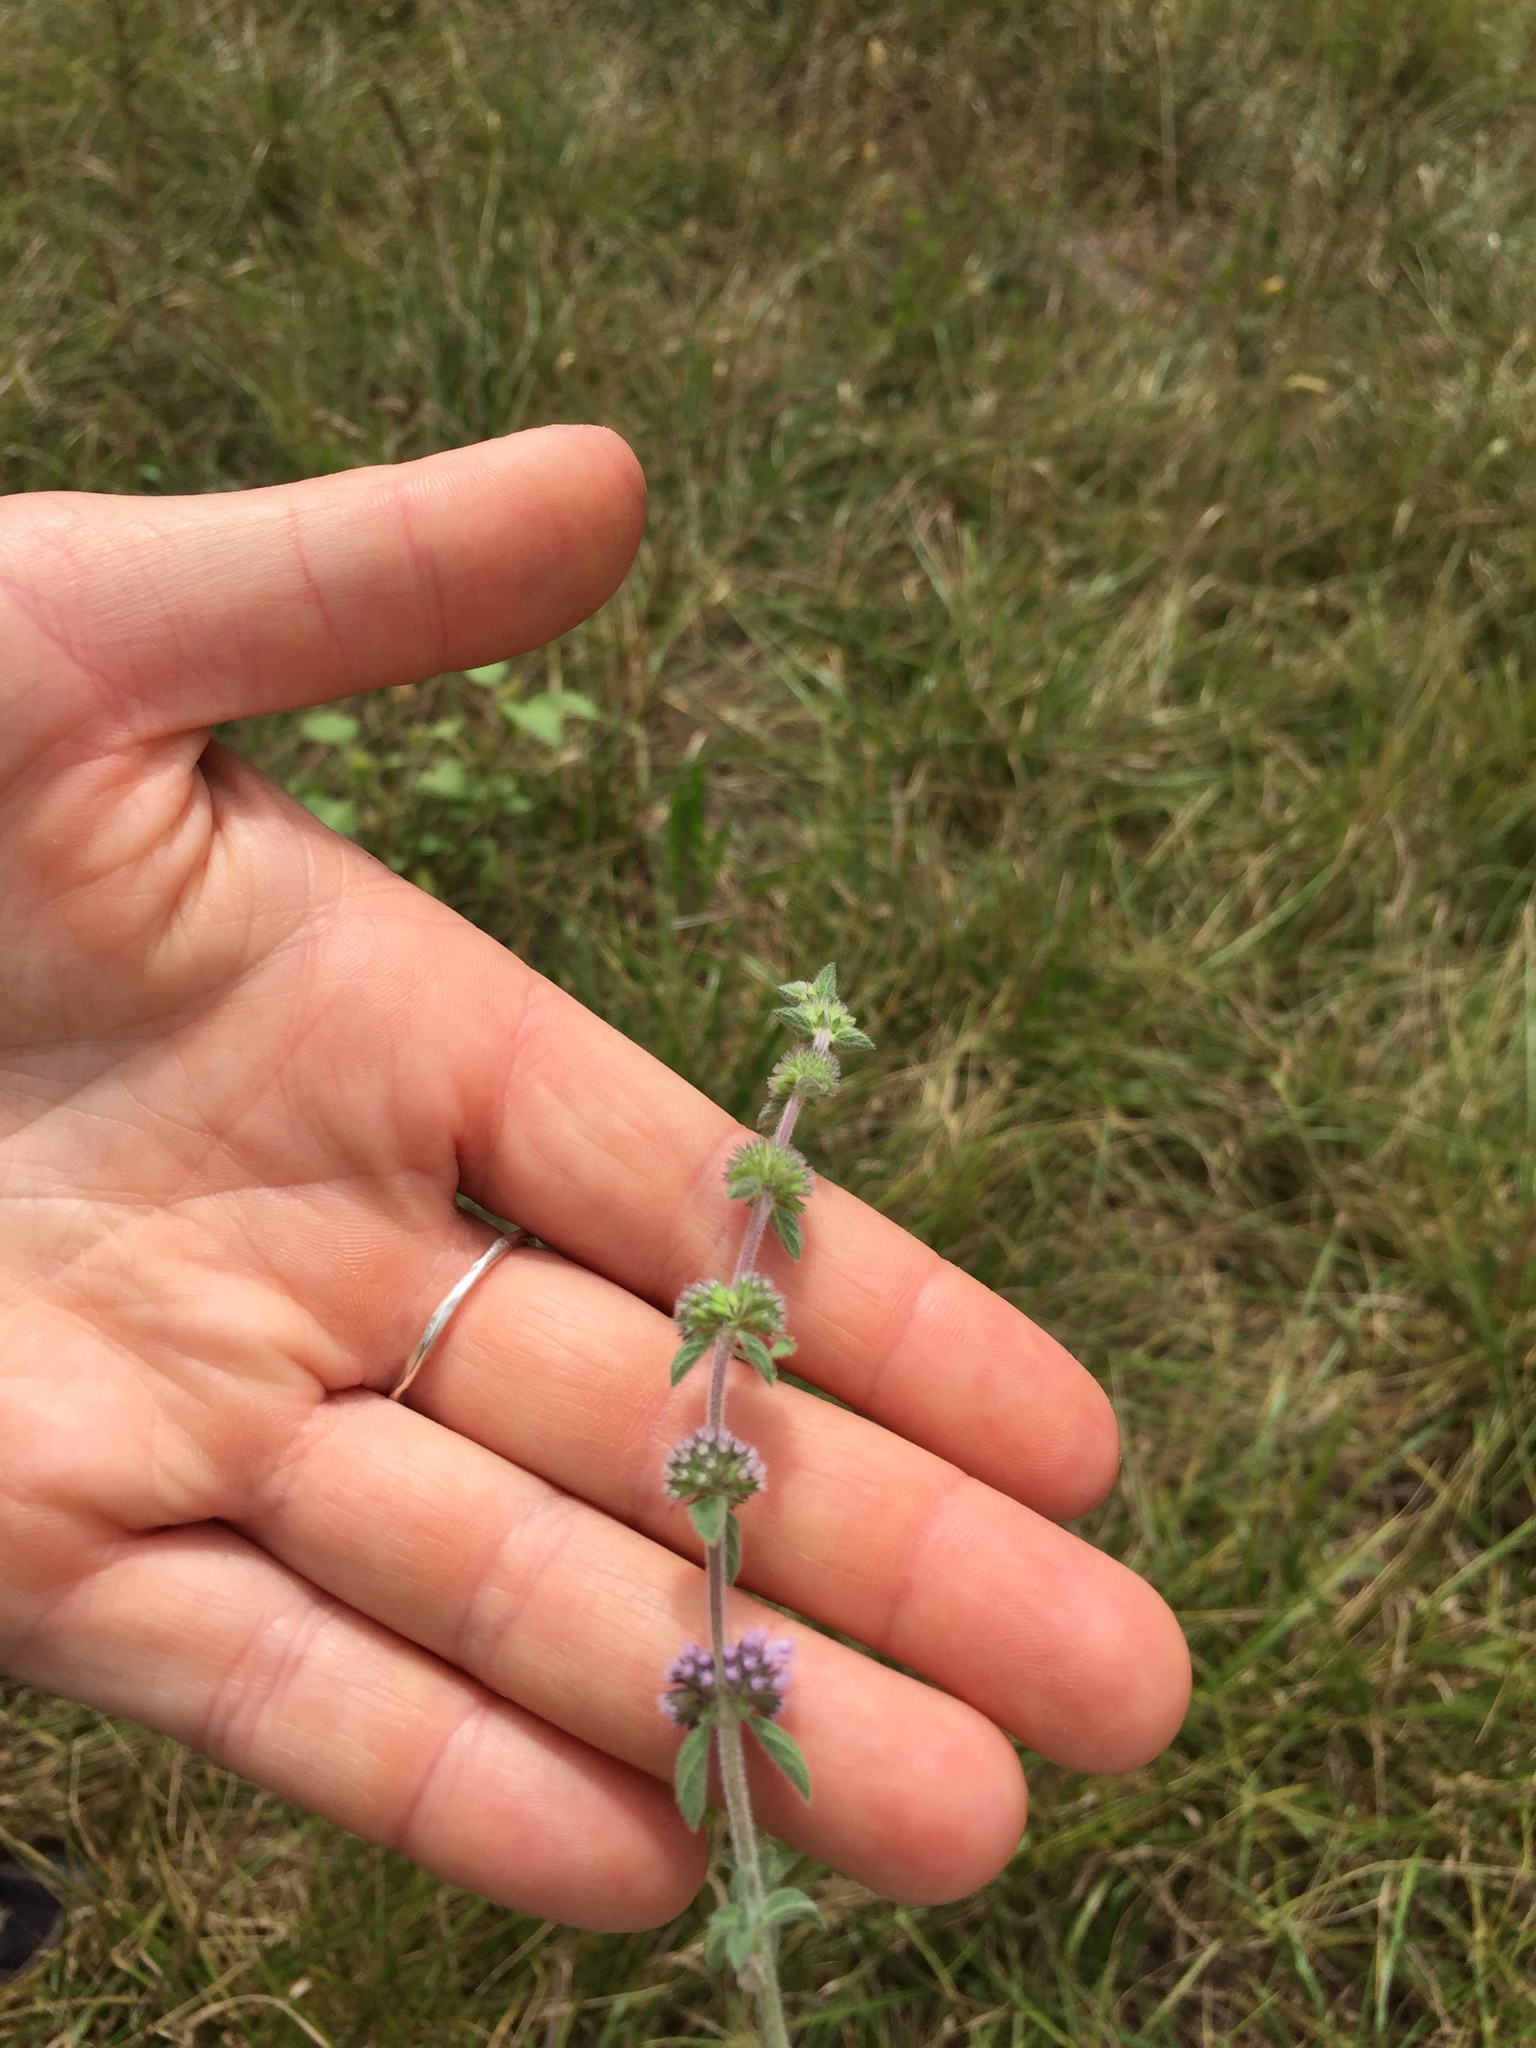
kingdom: Plantae
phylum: Tracheophyta
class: Magnoliopsida
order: Lamiales
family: Lamiaceae
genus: Mentha
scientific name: Mentha pulegium
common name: Pennyroyal
